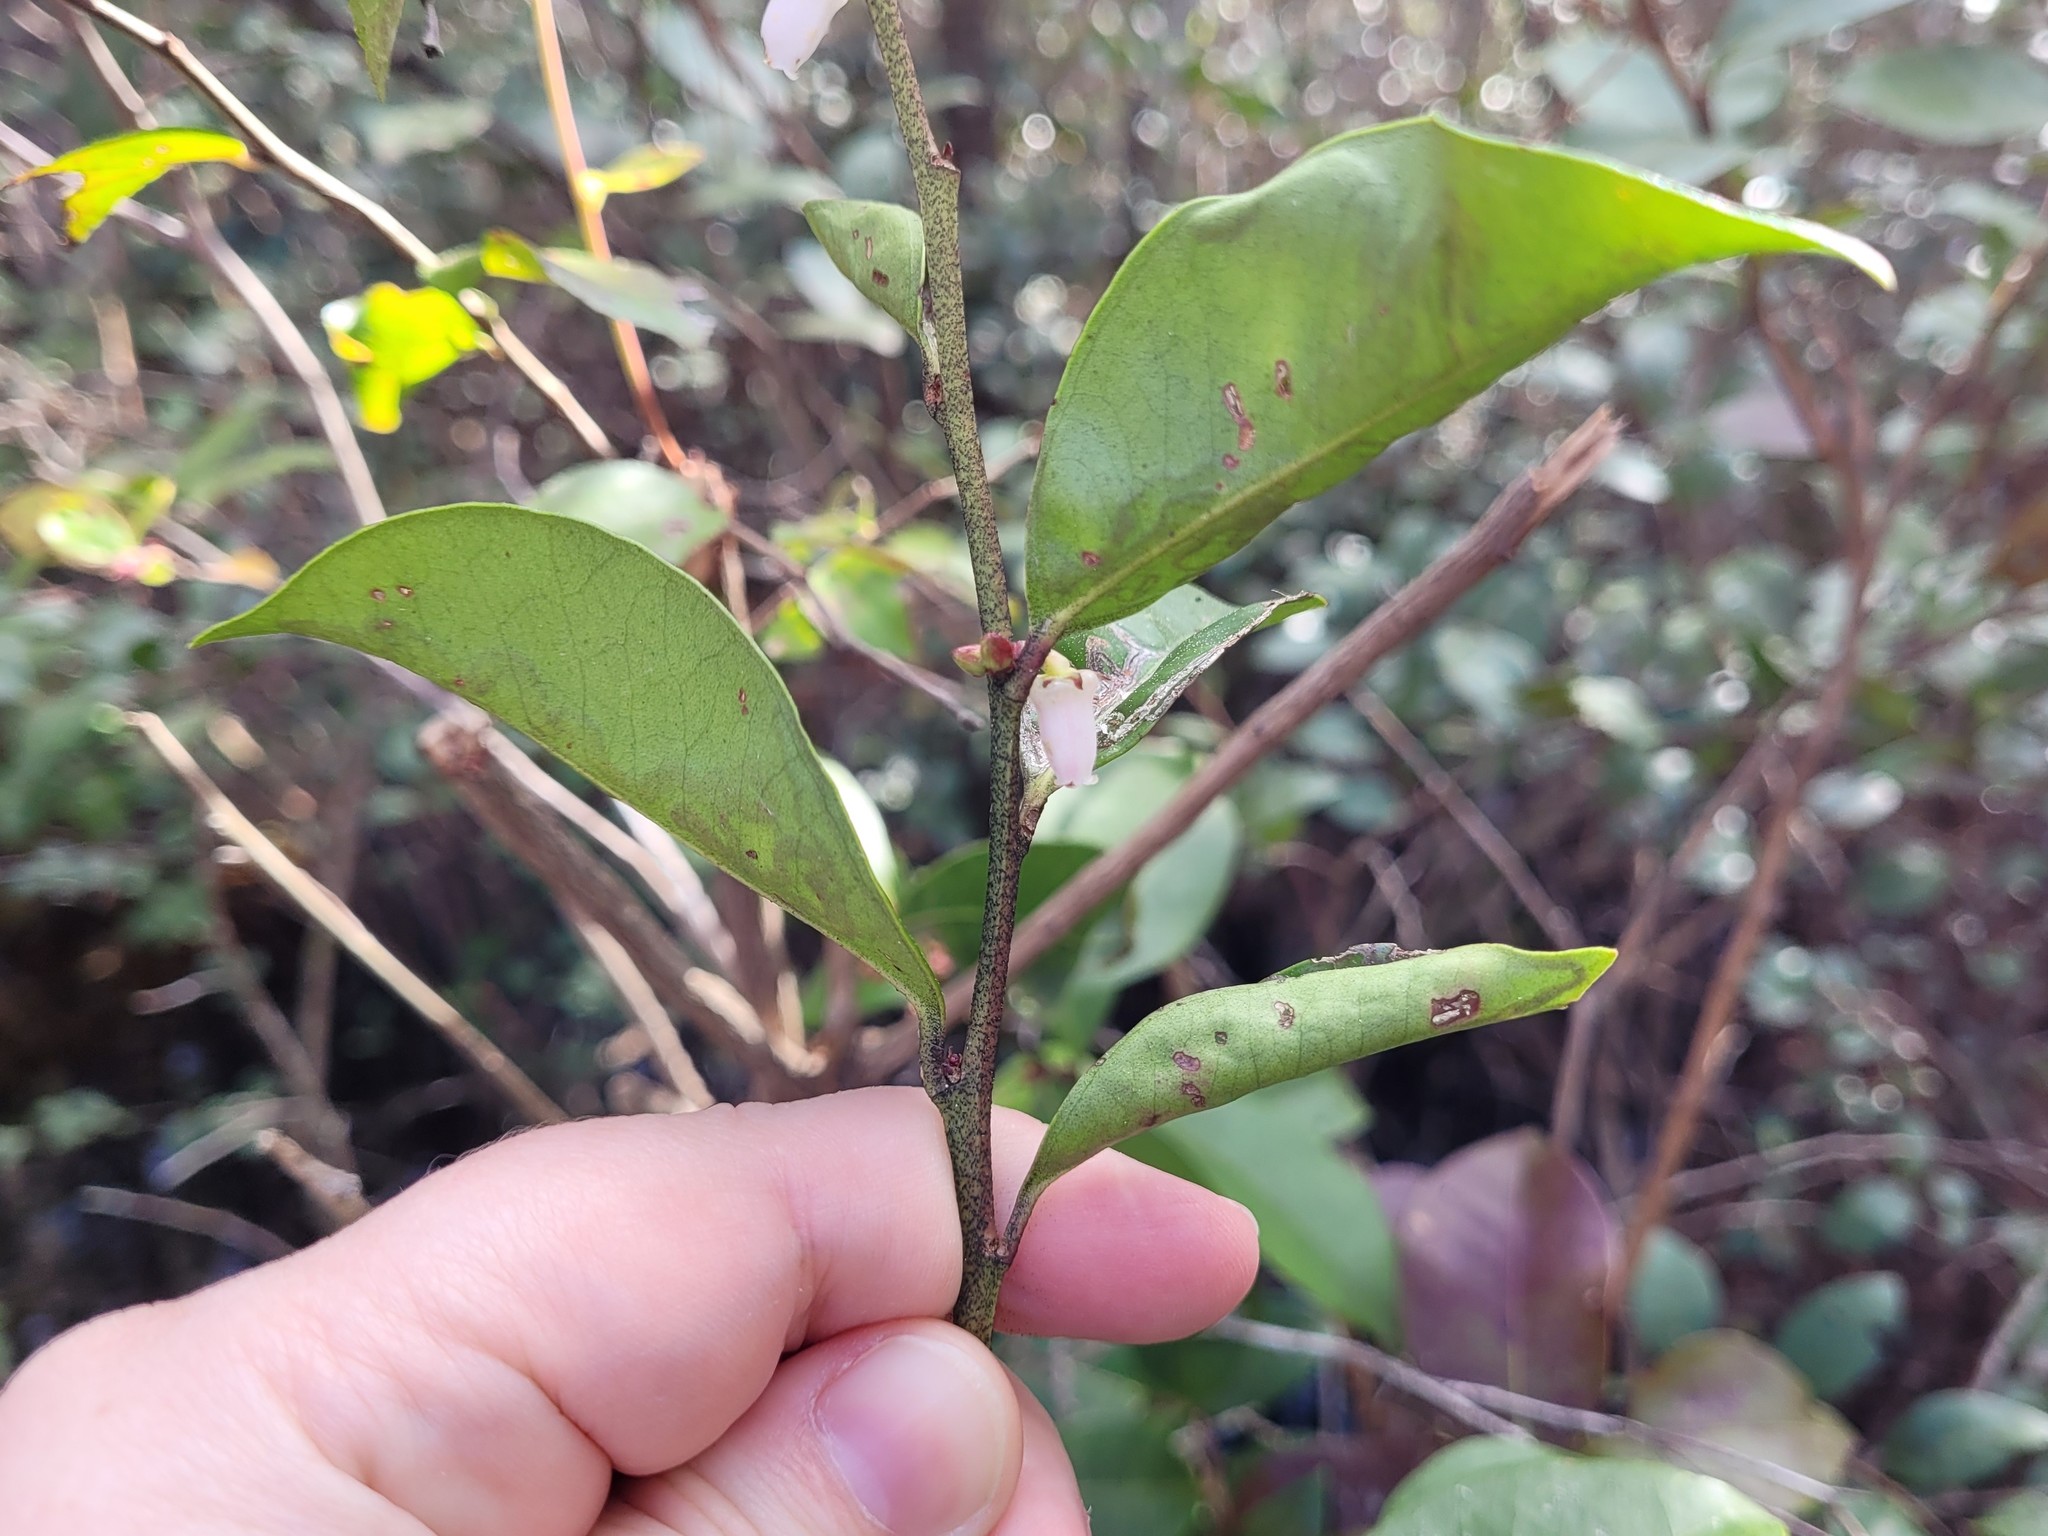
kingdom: Plantae
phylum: Tracheophyta
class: Magnoliopsida
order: Ericales
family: Ericaceae
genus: Lyonia
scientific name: Lyonia lucida
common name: Fetterbush
